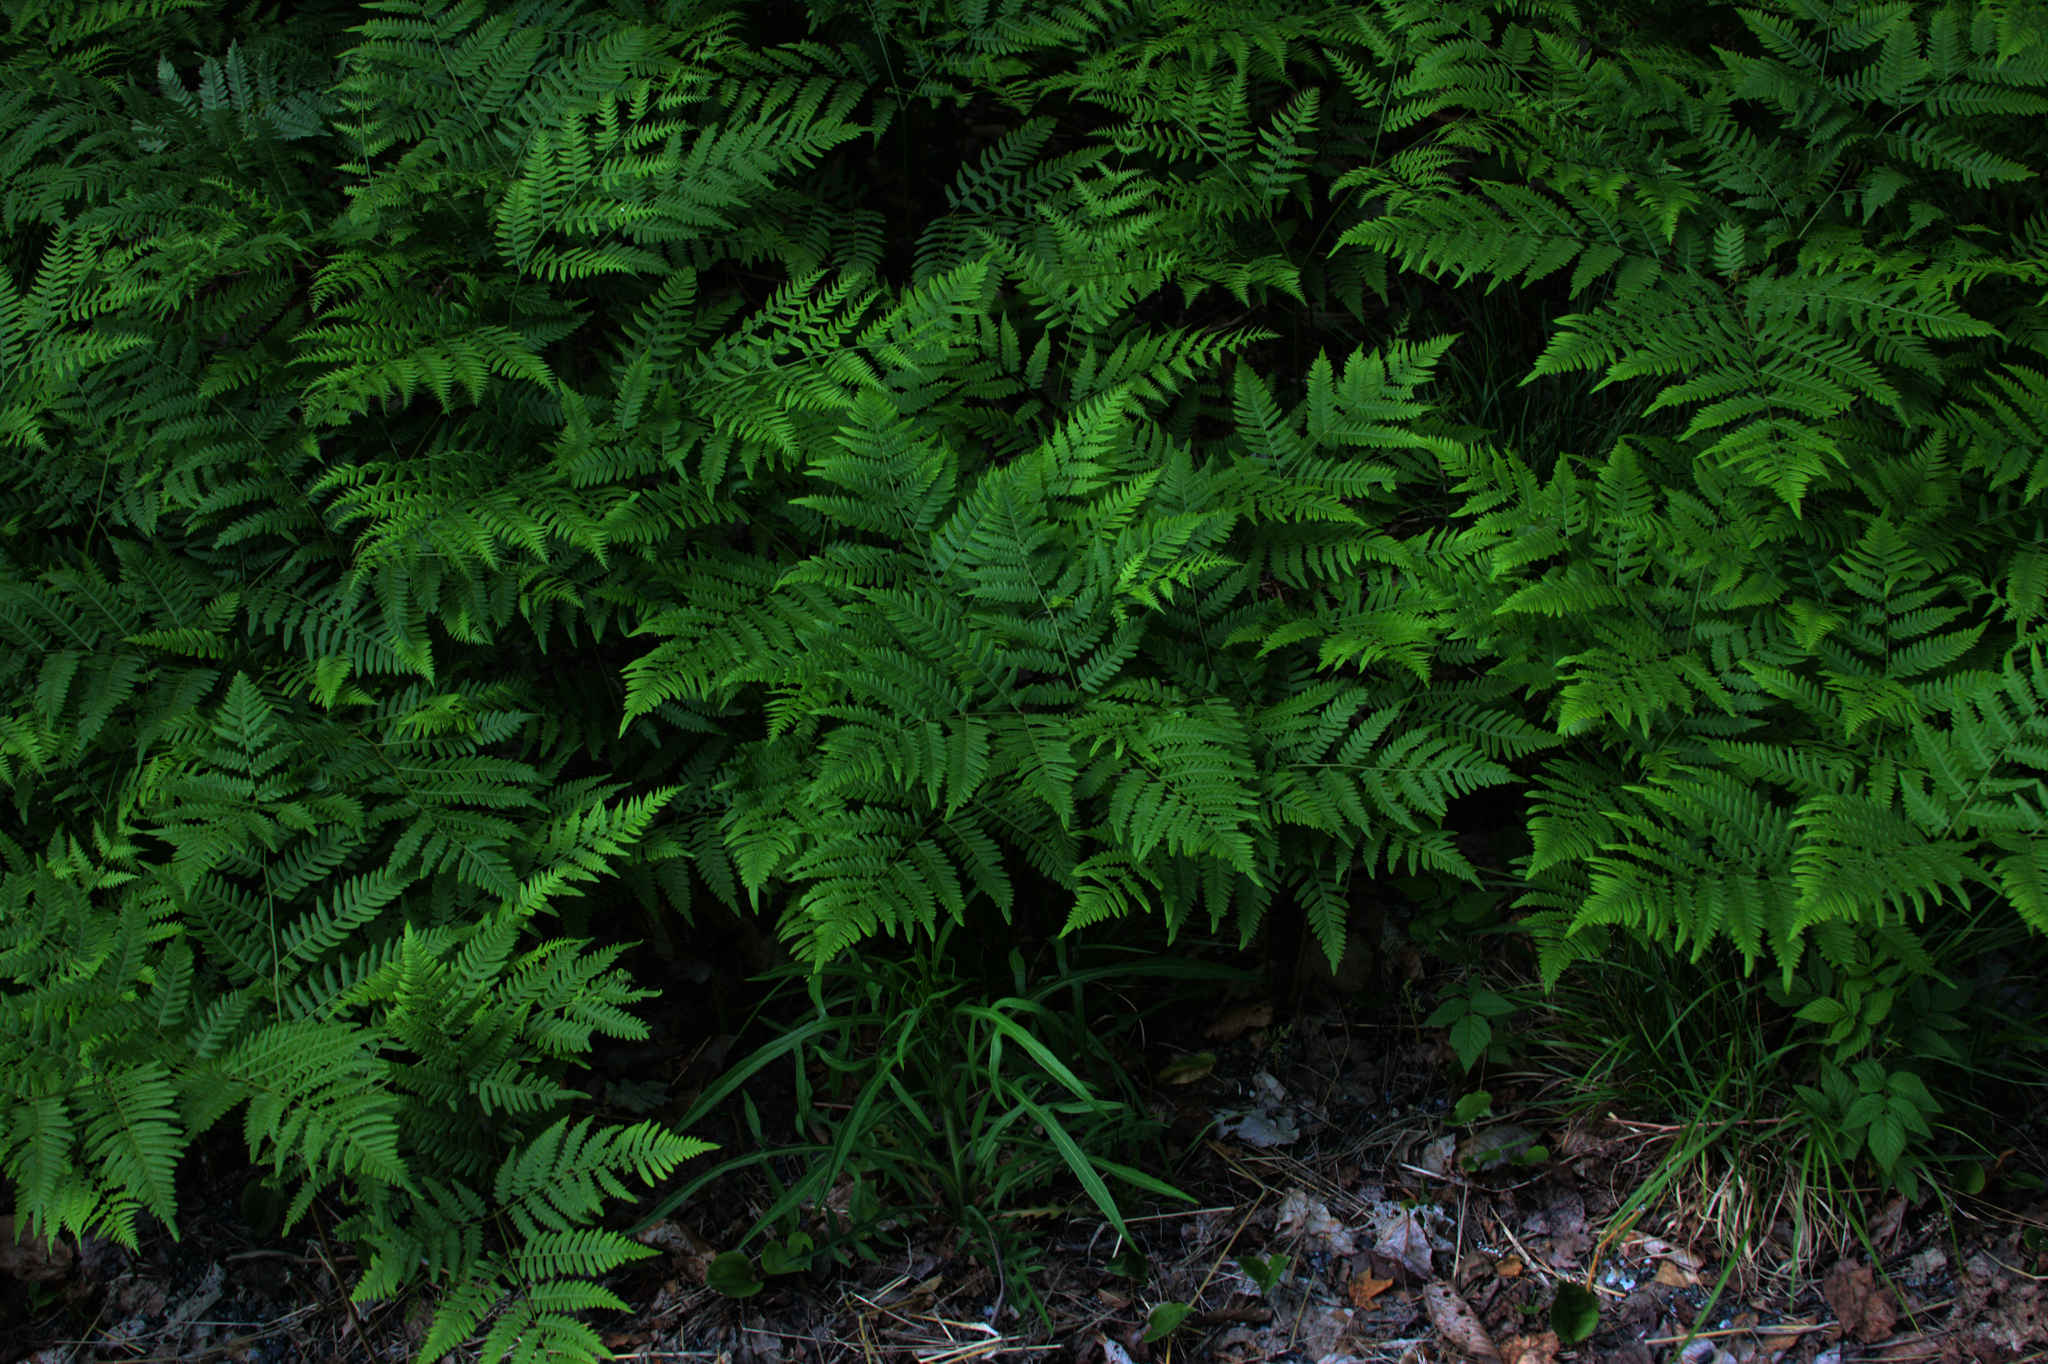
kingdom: Plantae
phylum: Tracheophyta
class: Polypodiopsida
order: Polypodiales
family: Dennstaedtiaceae
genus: Pteridium
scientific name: Pteridium aquilinum
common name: Bracken
